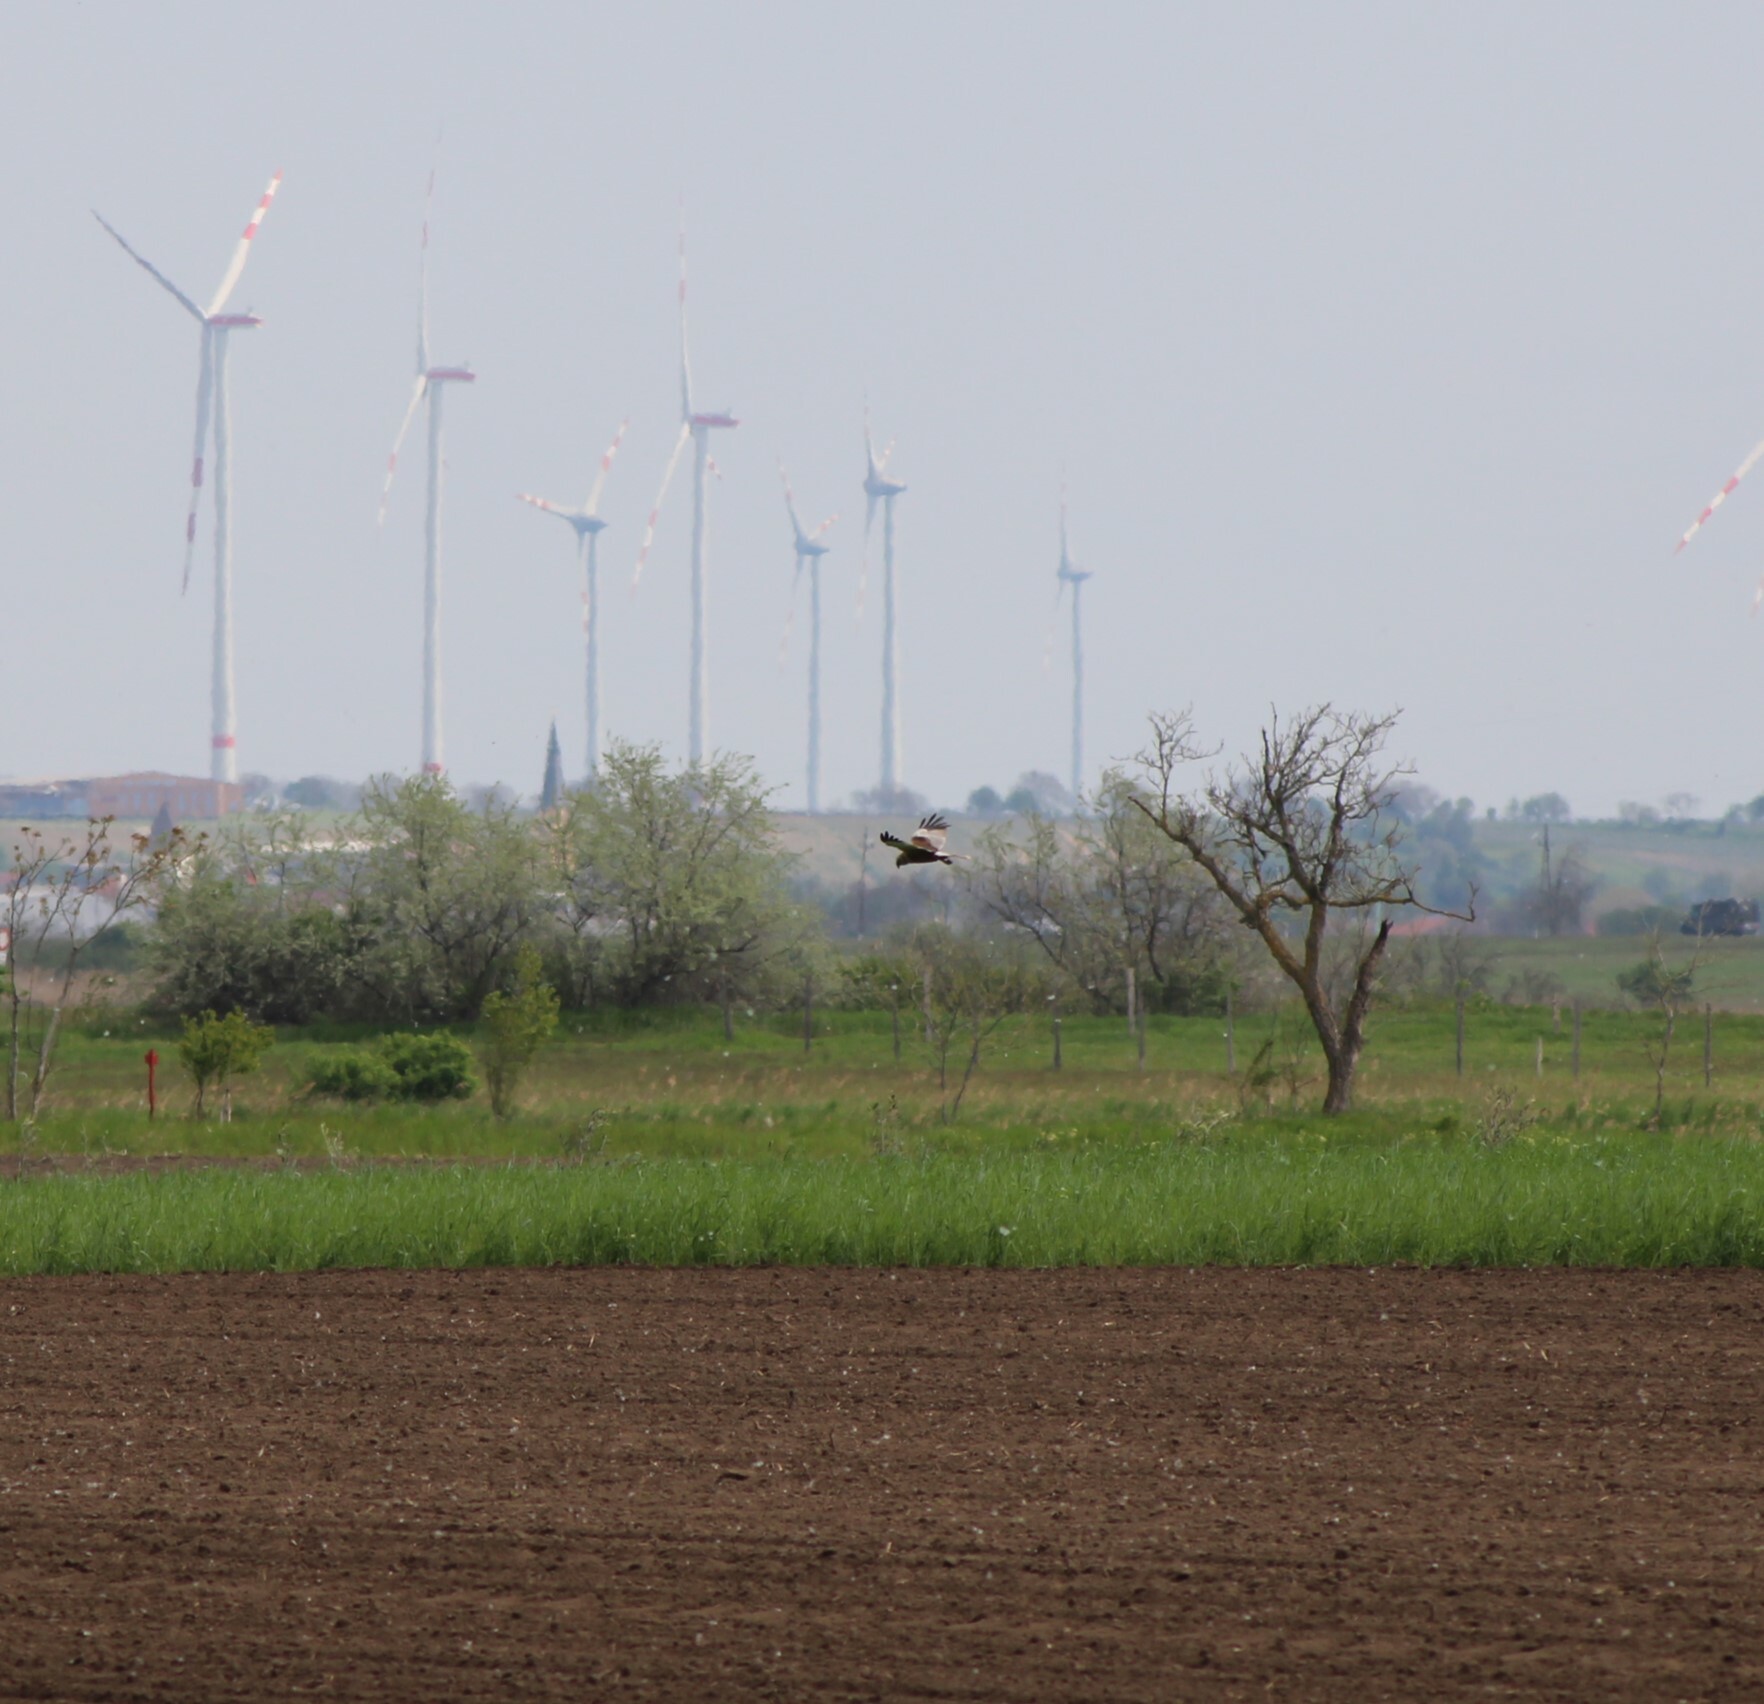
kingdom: Animalia
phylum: Chordata
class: Aves
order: Accipitriformes
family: Accipitridae
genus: Circus
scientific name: Circus aeruginosus
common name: Western marsh harrier
